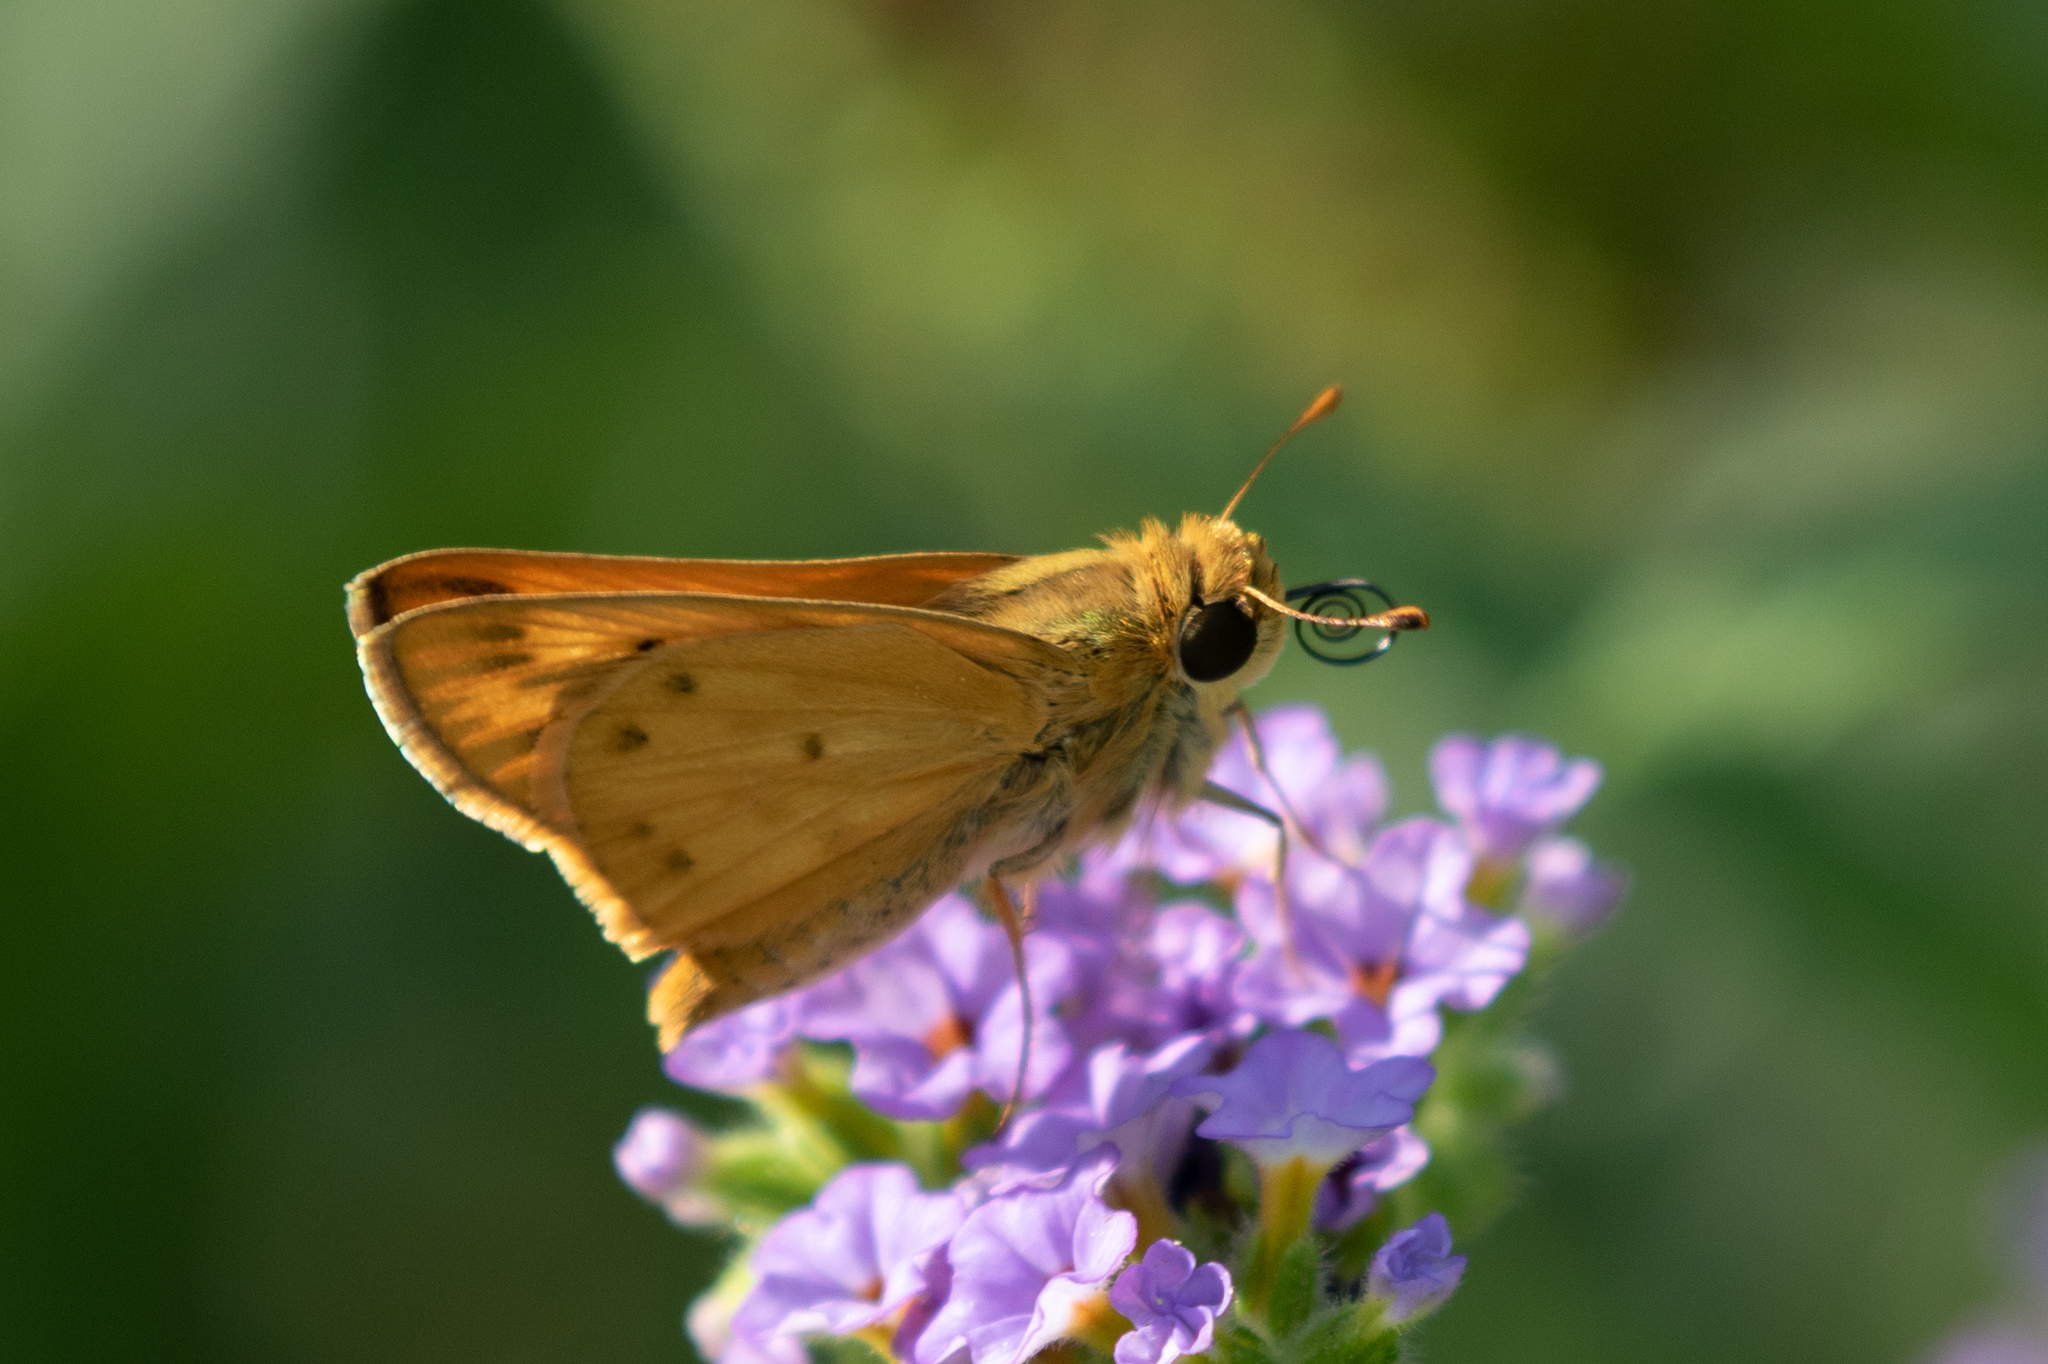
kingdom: Animalia
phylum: Arthropoda
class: Insecta
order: Lepidoptera
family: Hesperiidae
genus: Hylephila
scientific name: Hylephila phyleus
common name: Fiery skipper
